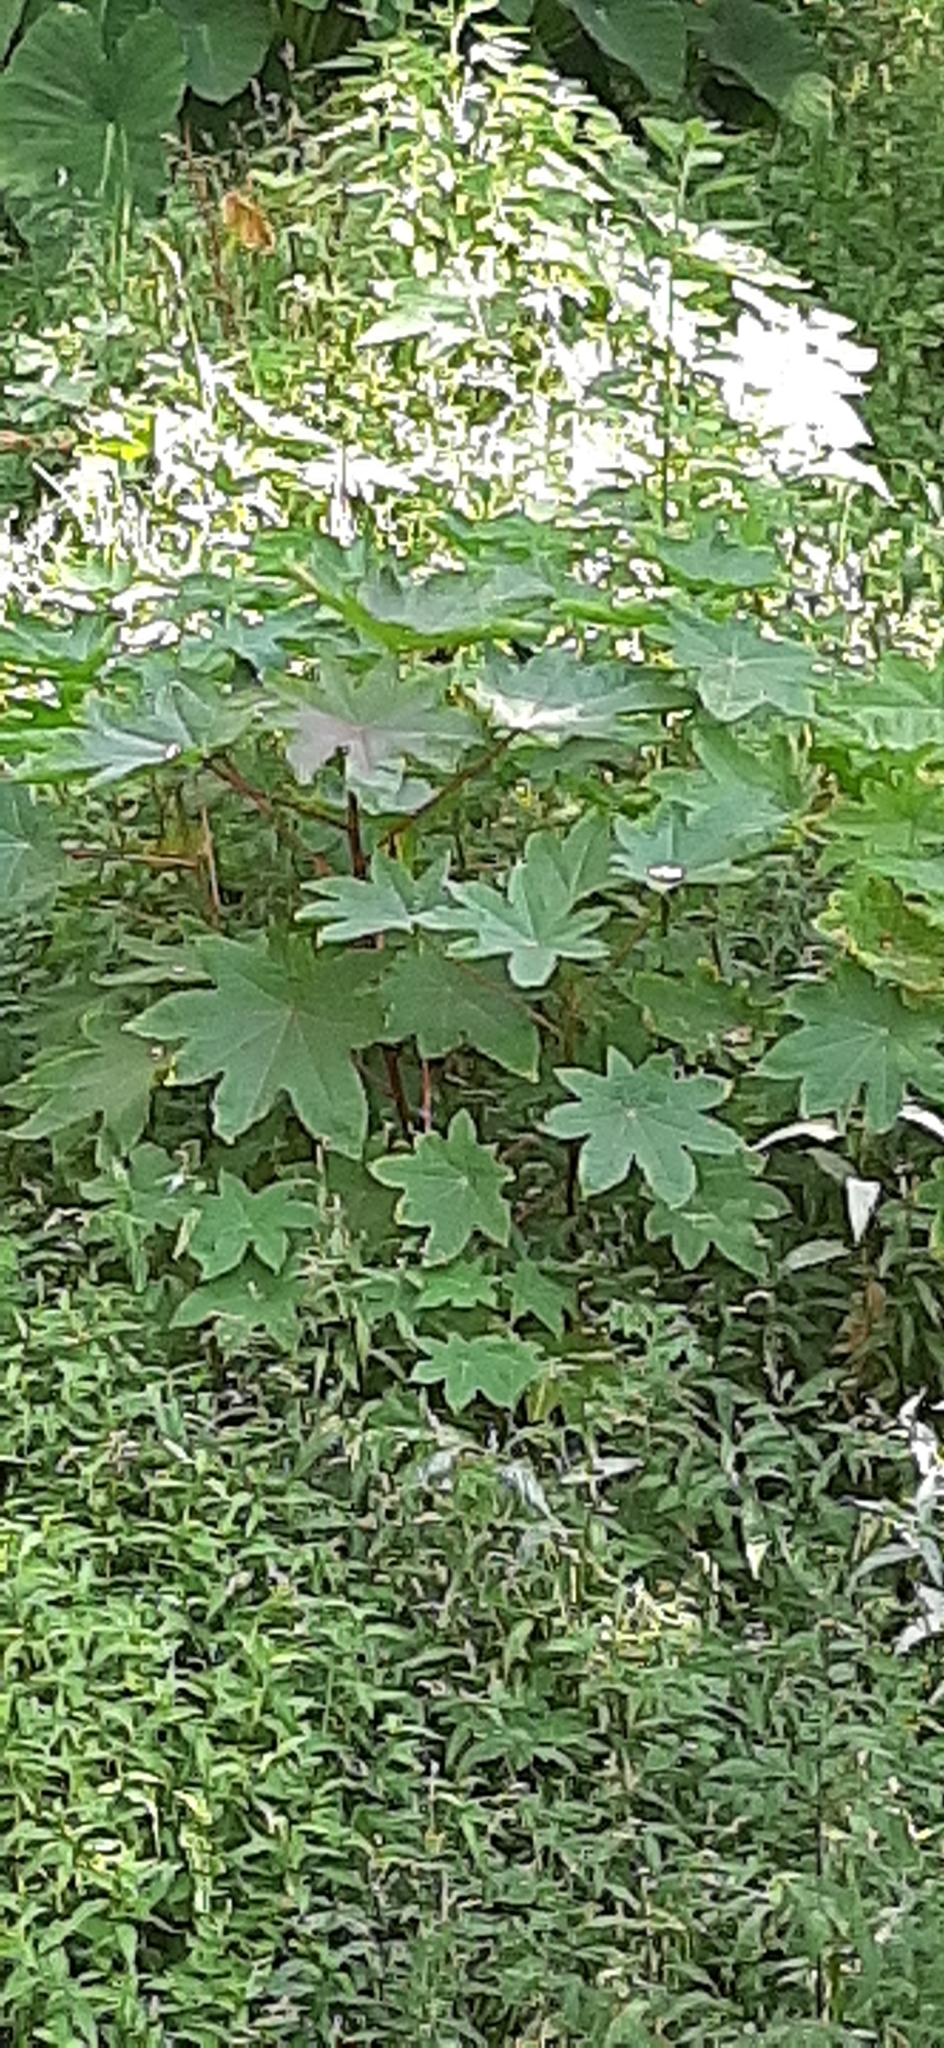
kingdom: Plantae
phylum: Tracheophyta
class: Magnoliopsida
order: Malpighiales
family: Euphorbiaceae
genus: Ricinus
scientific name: Ricinus communis
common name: Castor-oil-plant
